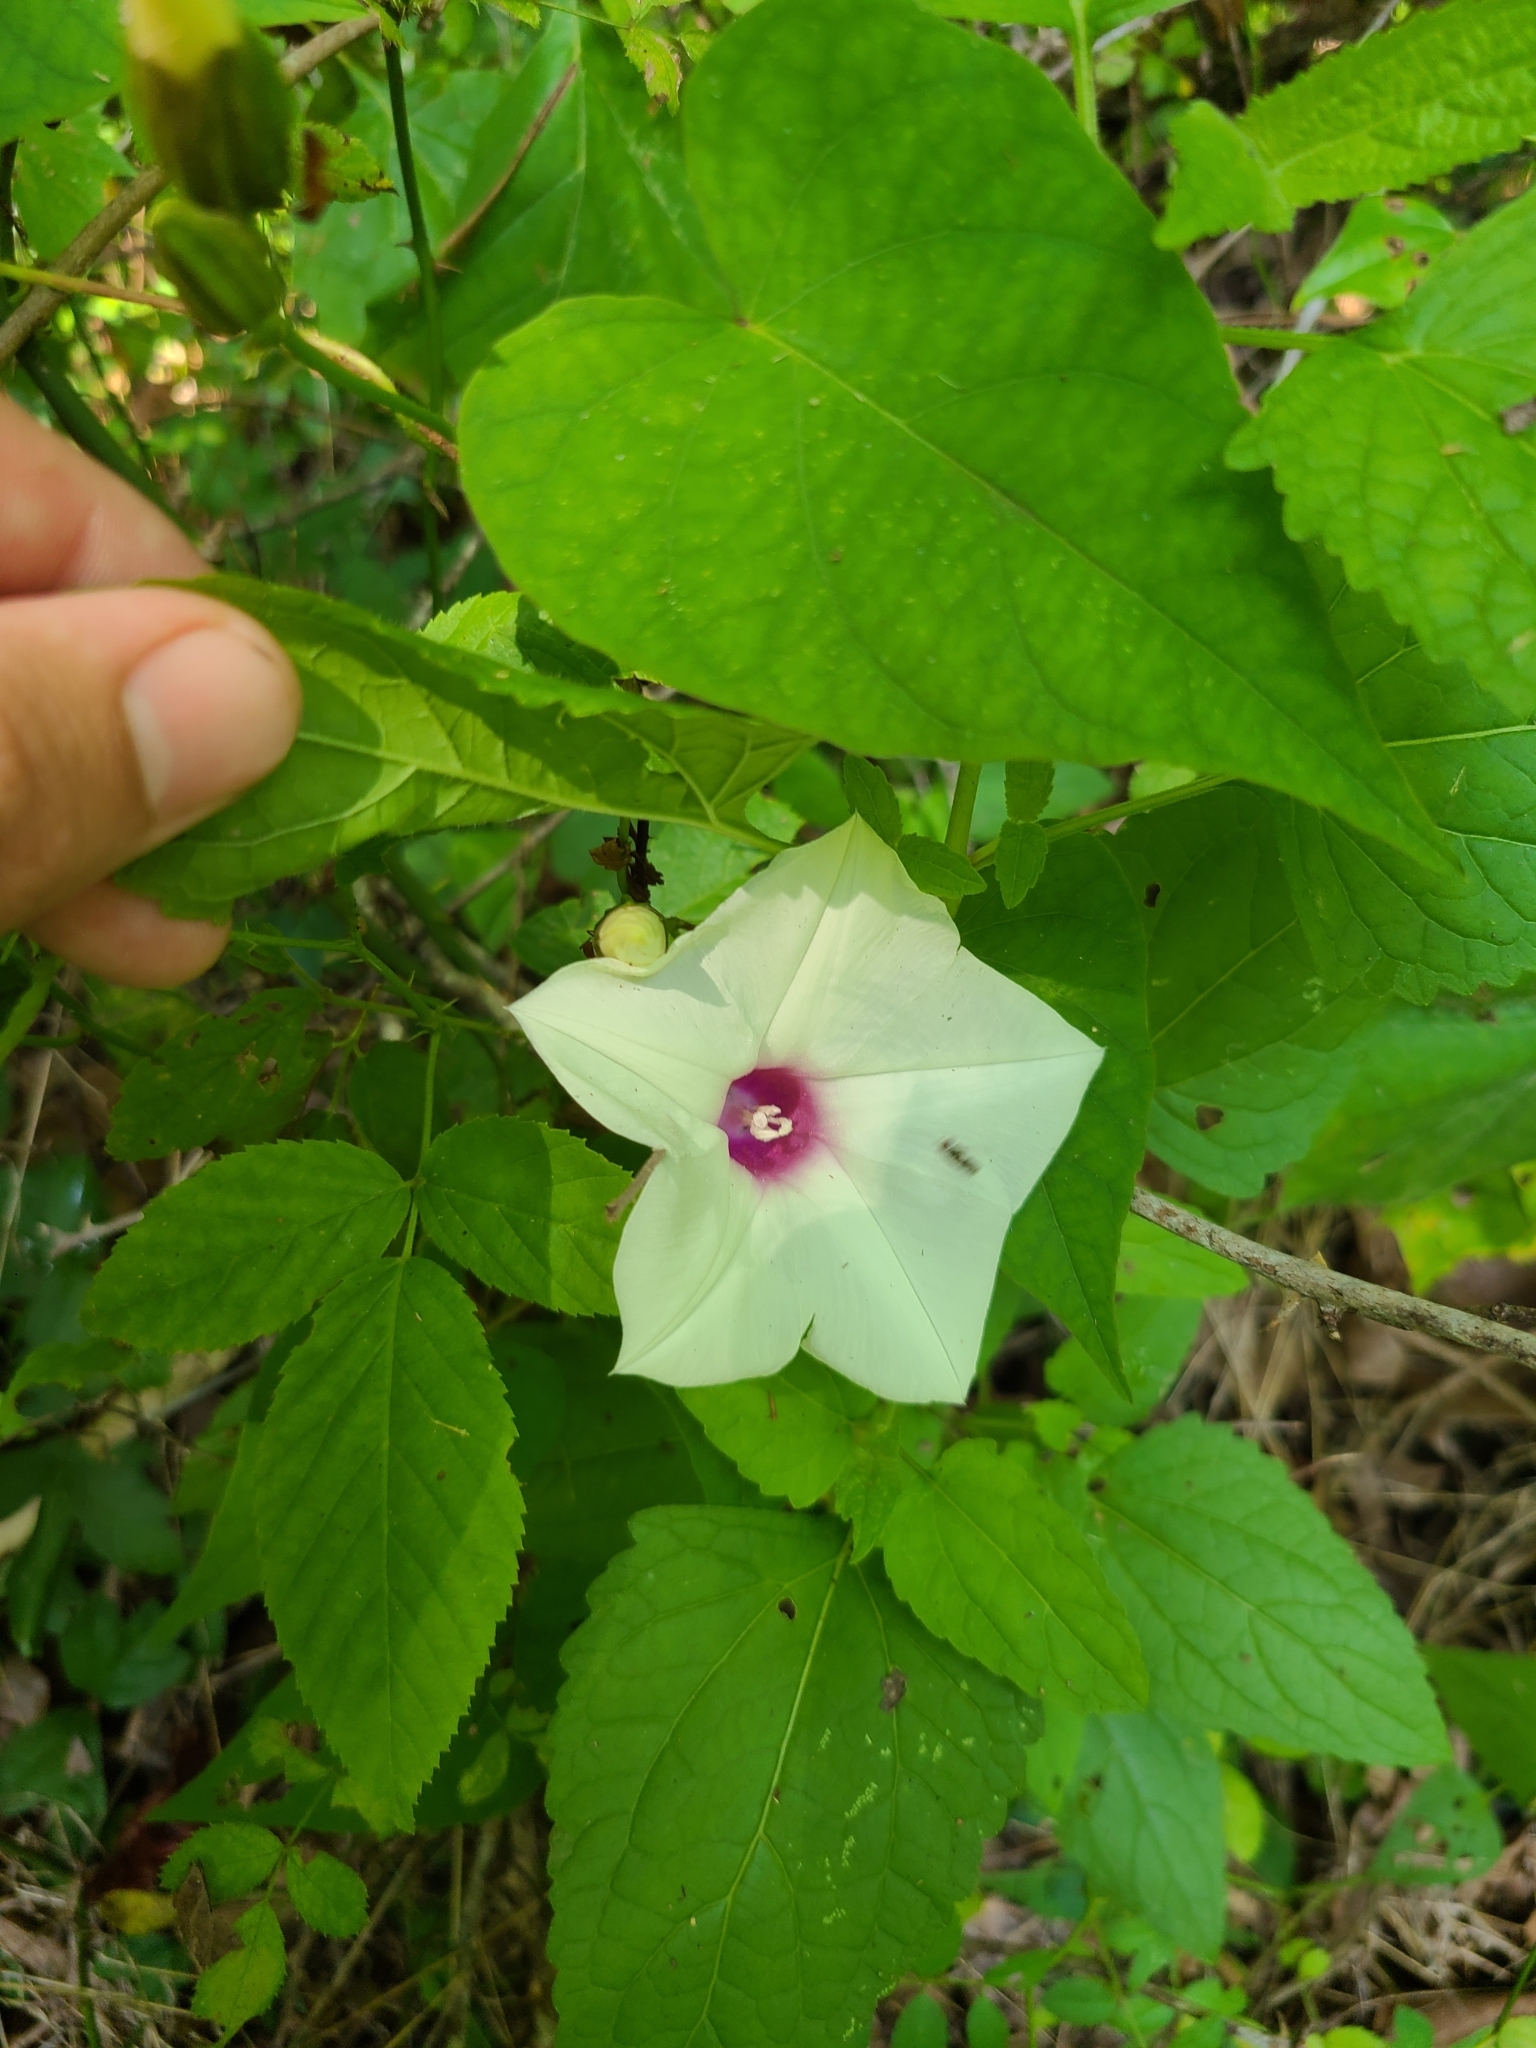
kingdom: Plantae
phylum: Tracheophyta
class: Magnoliopsida
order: Solanales
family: Convolvulaceae
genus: Ipomoea
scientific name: Ipomoea pandurata
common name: Man-of-the-earth
